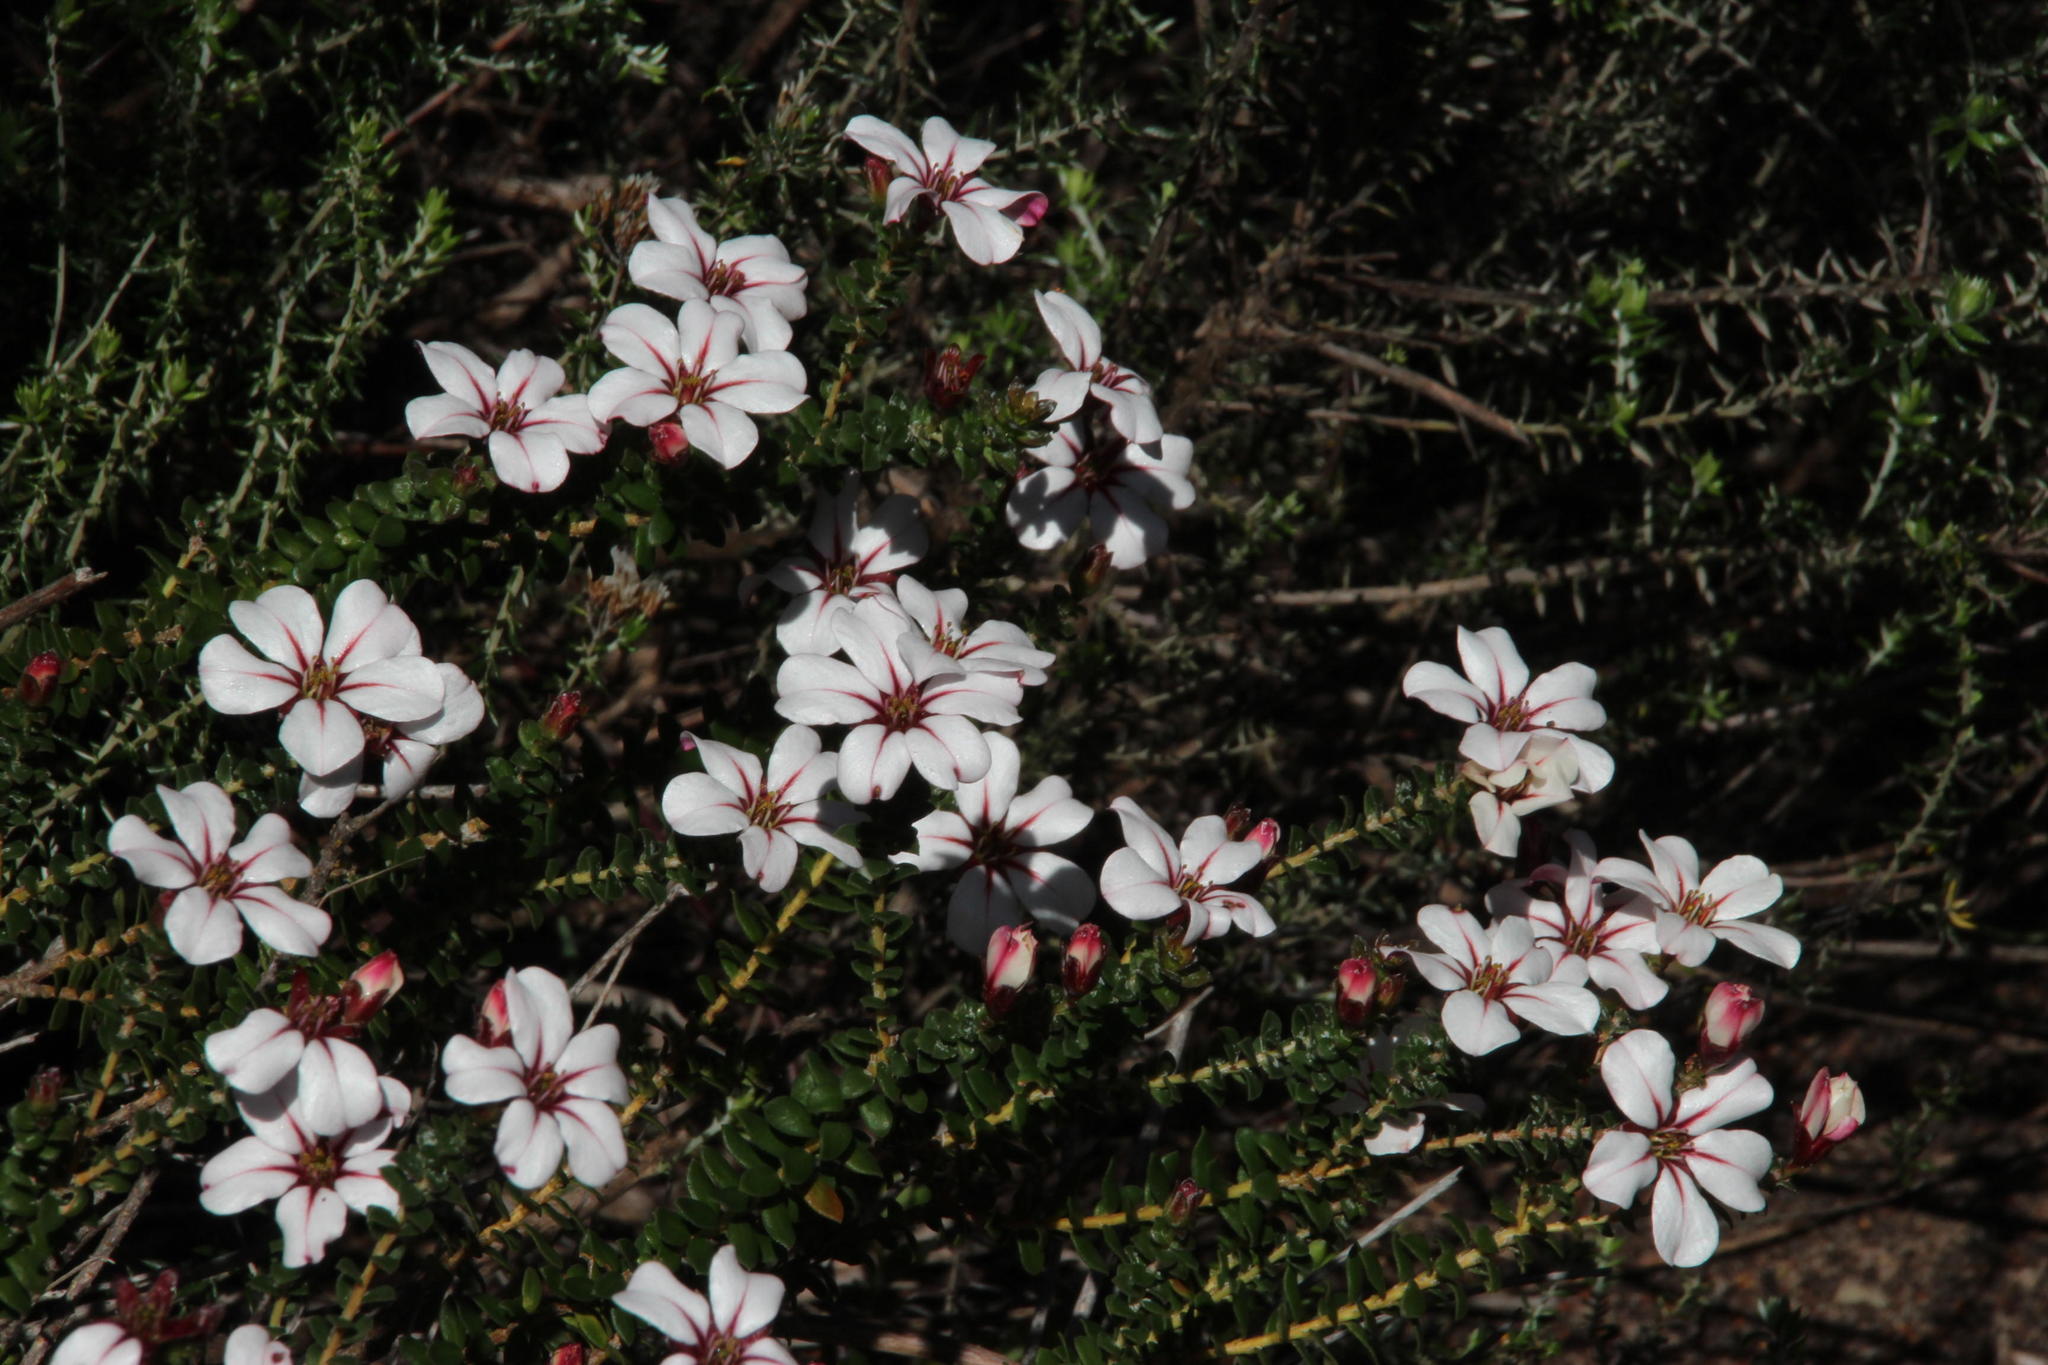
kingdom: Plantae
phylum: Tracheophyta
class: Magnoliopsida
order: Sapindales
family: Rutaceae
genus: Adenandra
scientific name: Adenandra villosa
